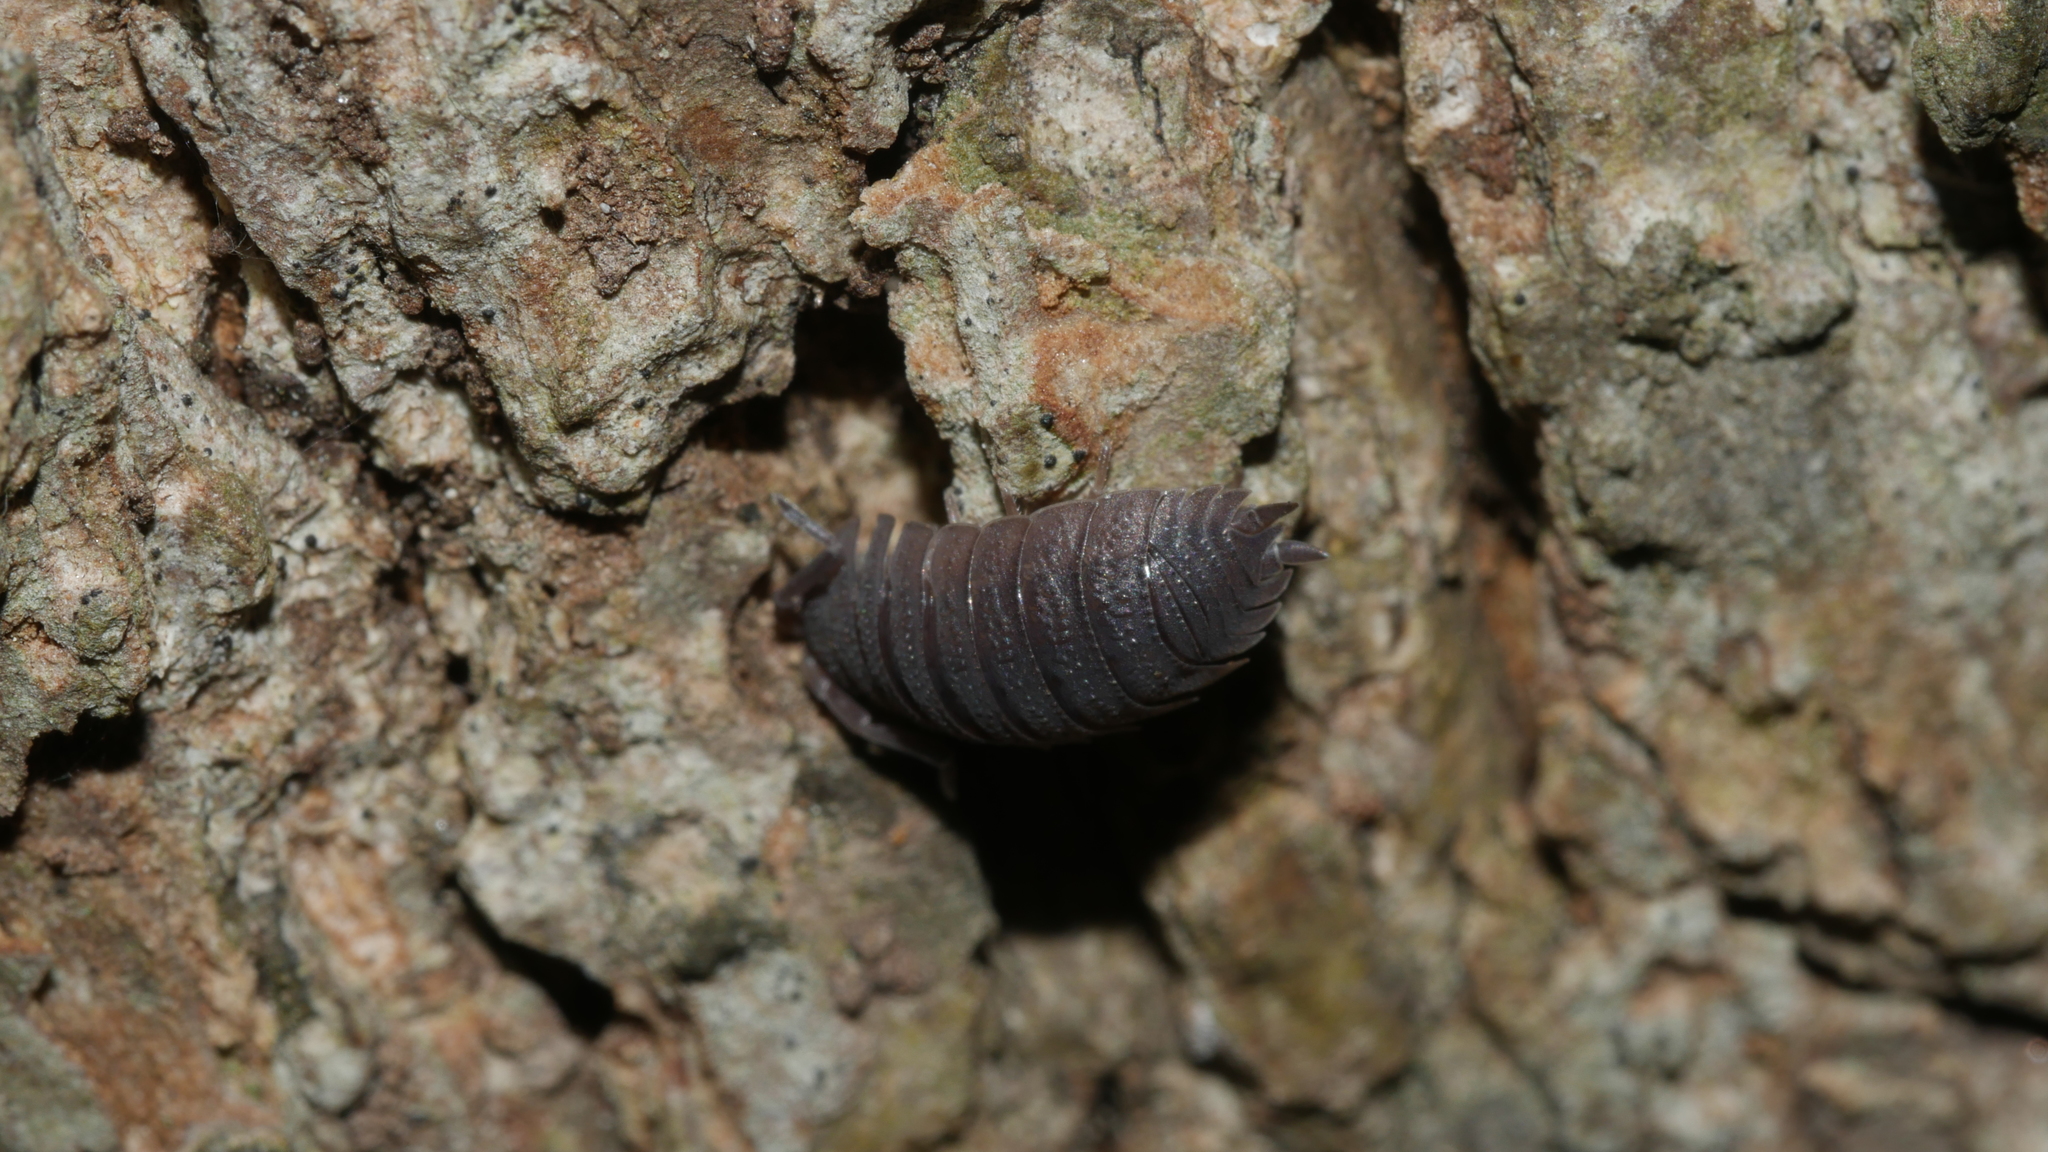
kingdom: Animalia
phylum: Arthropoda
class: Malacostraca
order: Isopoda
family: Porcellionidae
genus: Porcellio
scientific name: Porcellio scaber
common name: Common rough woodlouse
